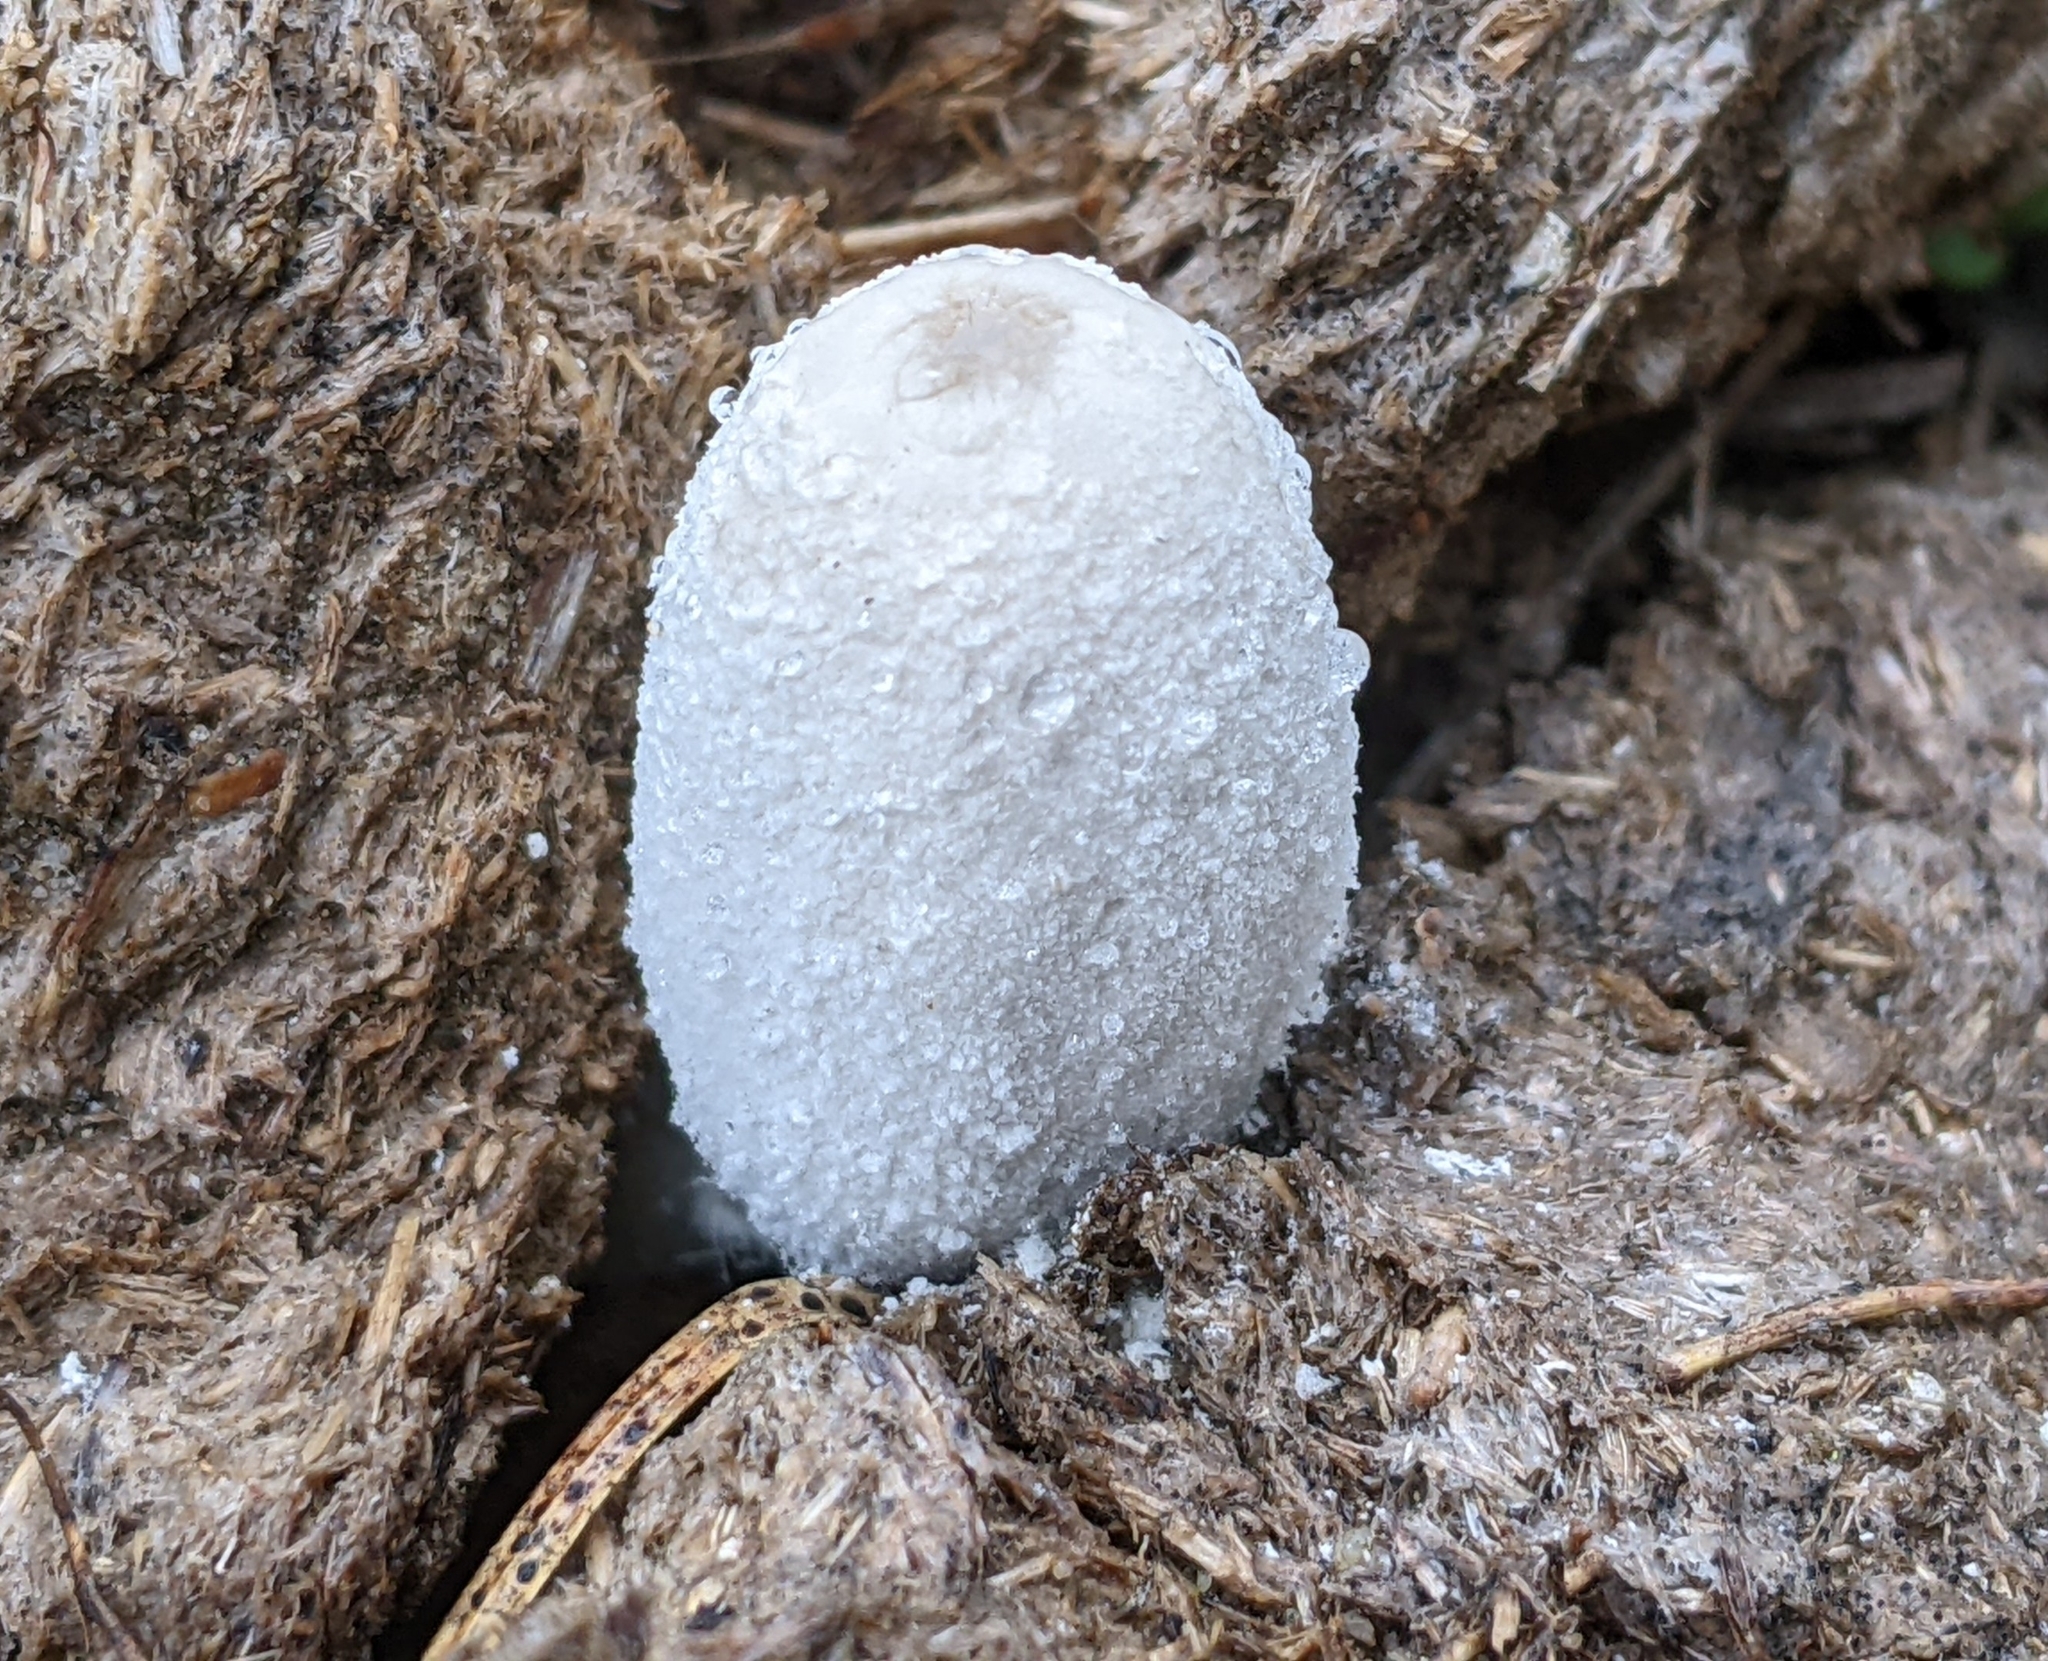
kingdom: Fungi
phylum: Basidiomycota
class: Agaricomycetes
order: Agaricales
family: Psathyrellaceae
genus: Coprinopsis
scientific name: Coprinopsis nivea
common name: Snowy inkcap
